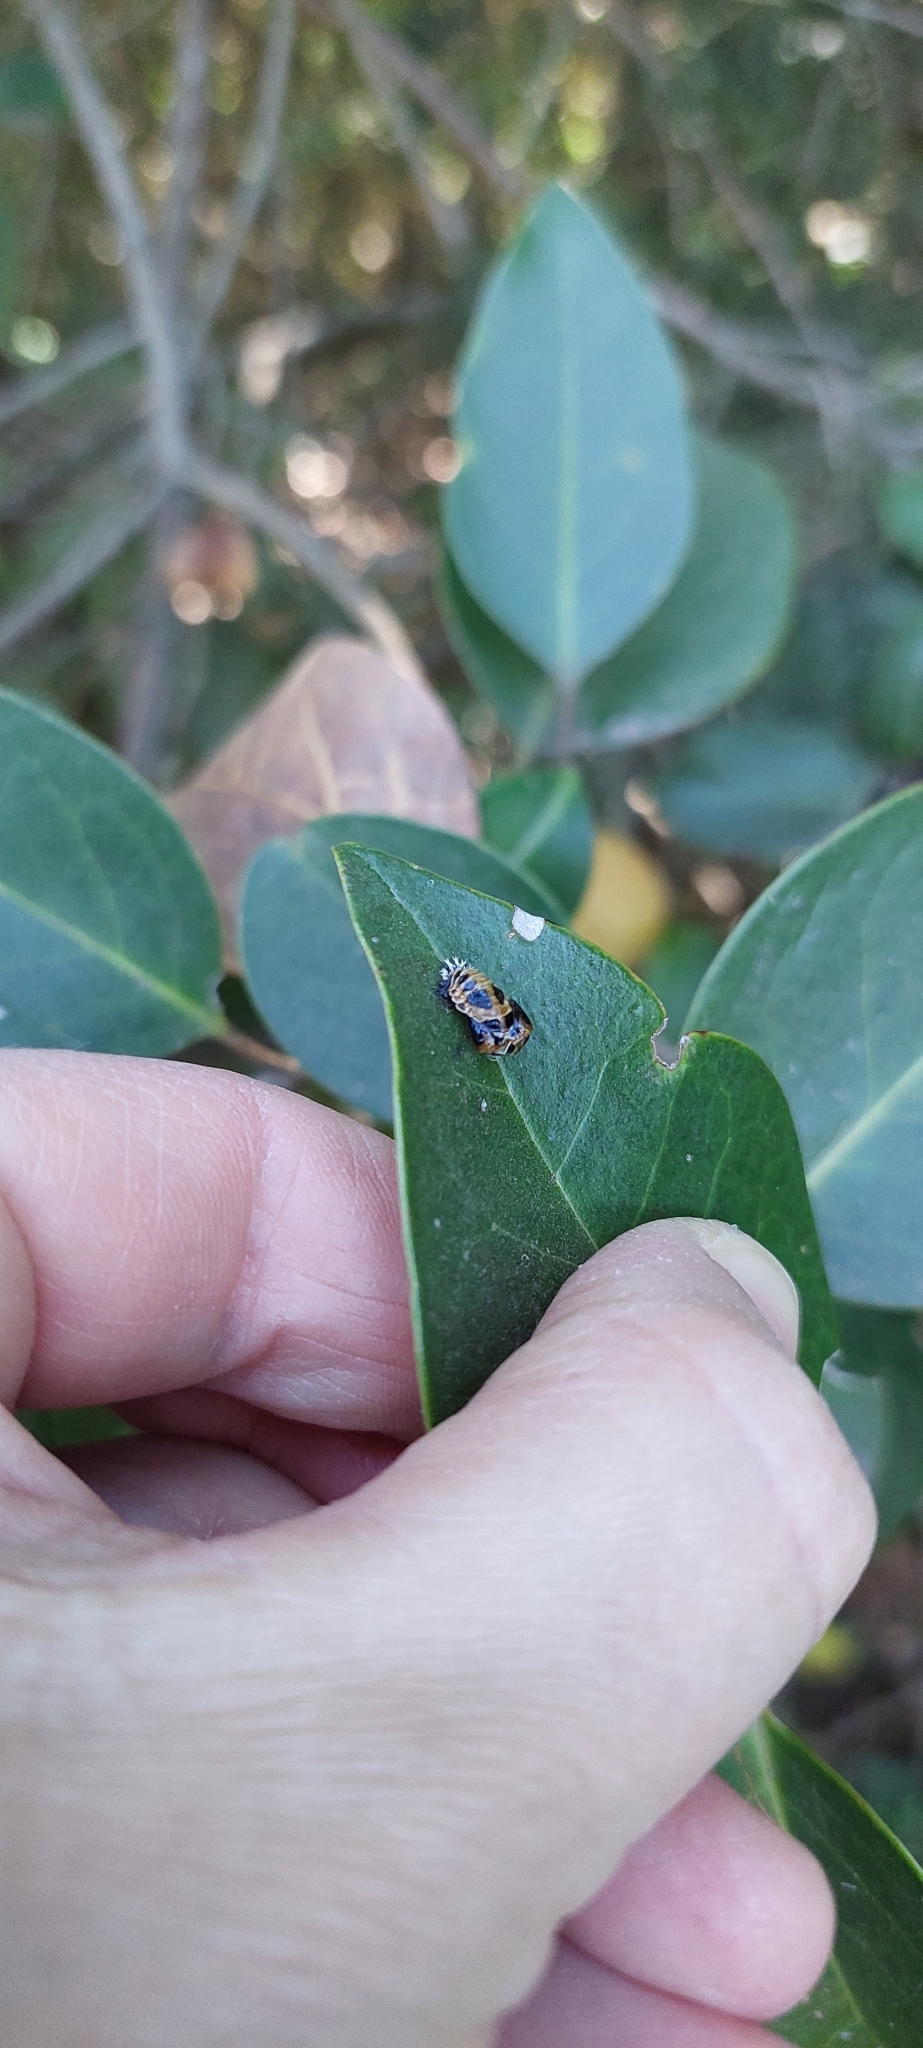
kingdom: Animalia
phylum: Arthropoda
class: Insecta
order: Coleoptera
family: Coccinellidae
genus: Harmonia
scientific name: Harmonia axyridis
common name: Harlequin ladybird
